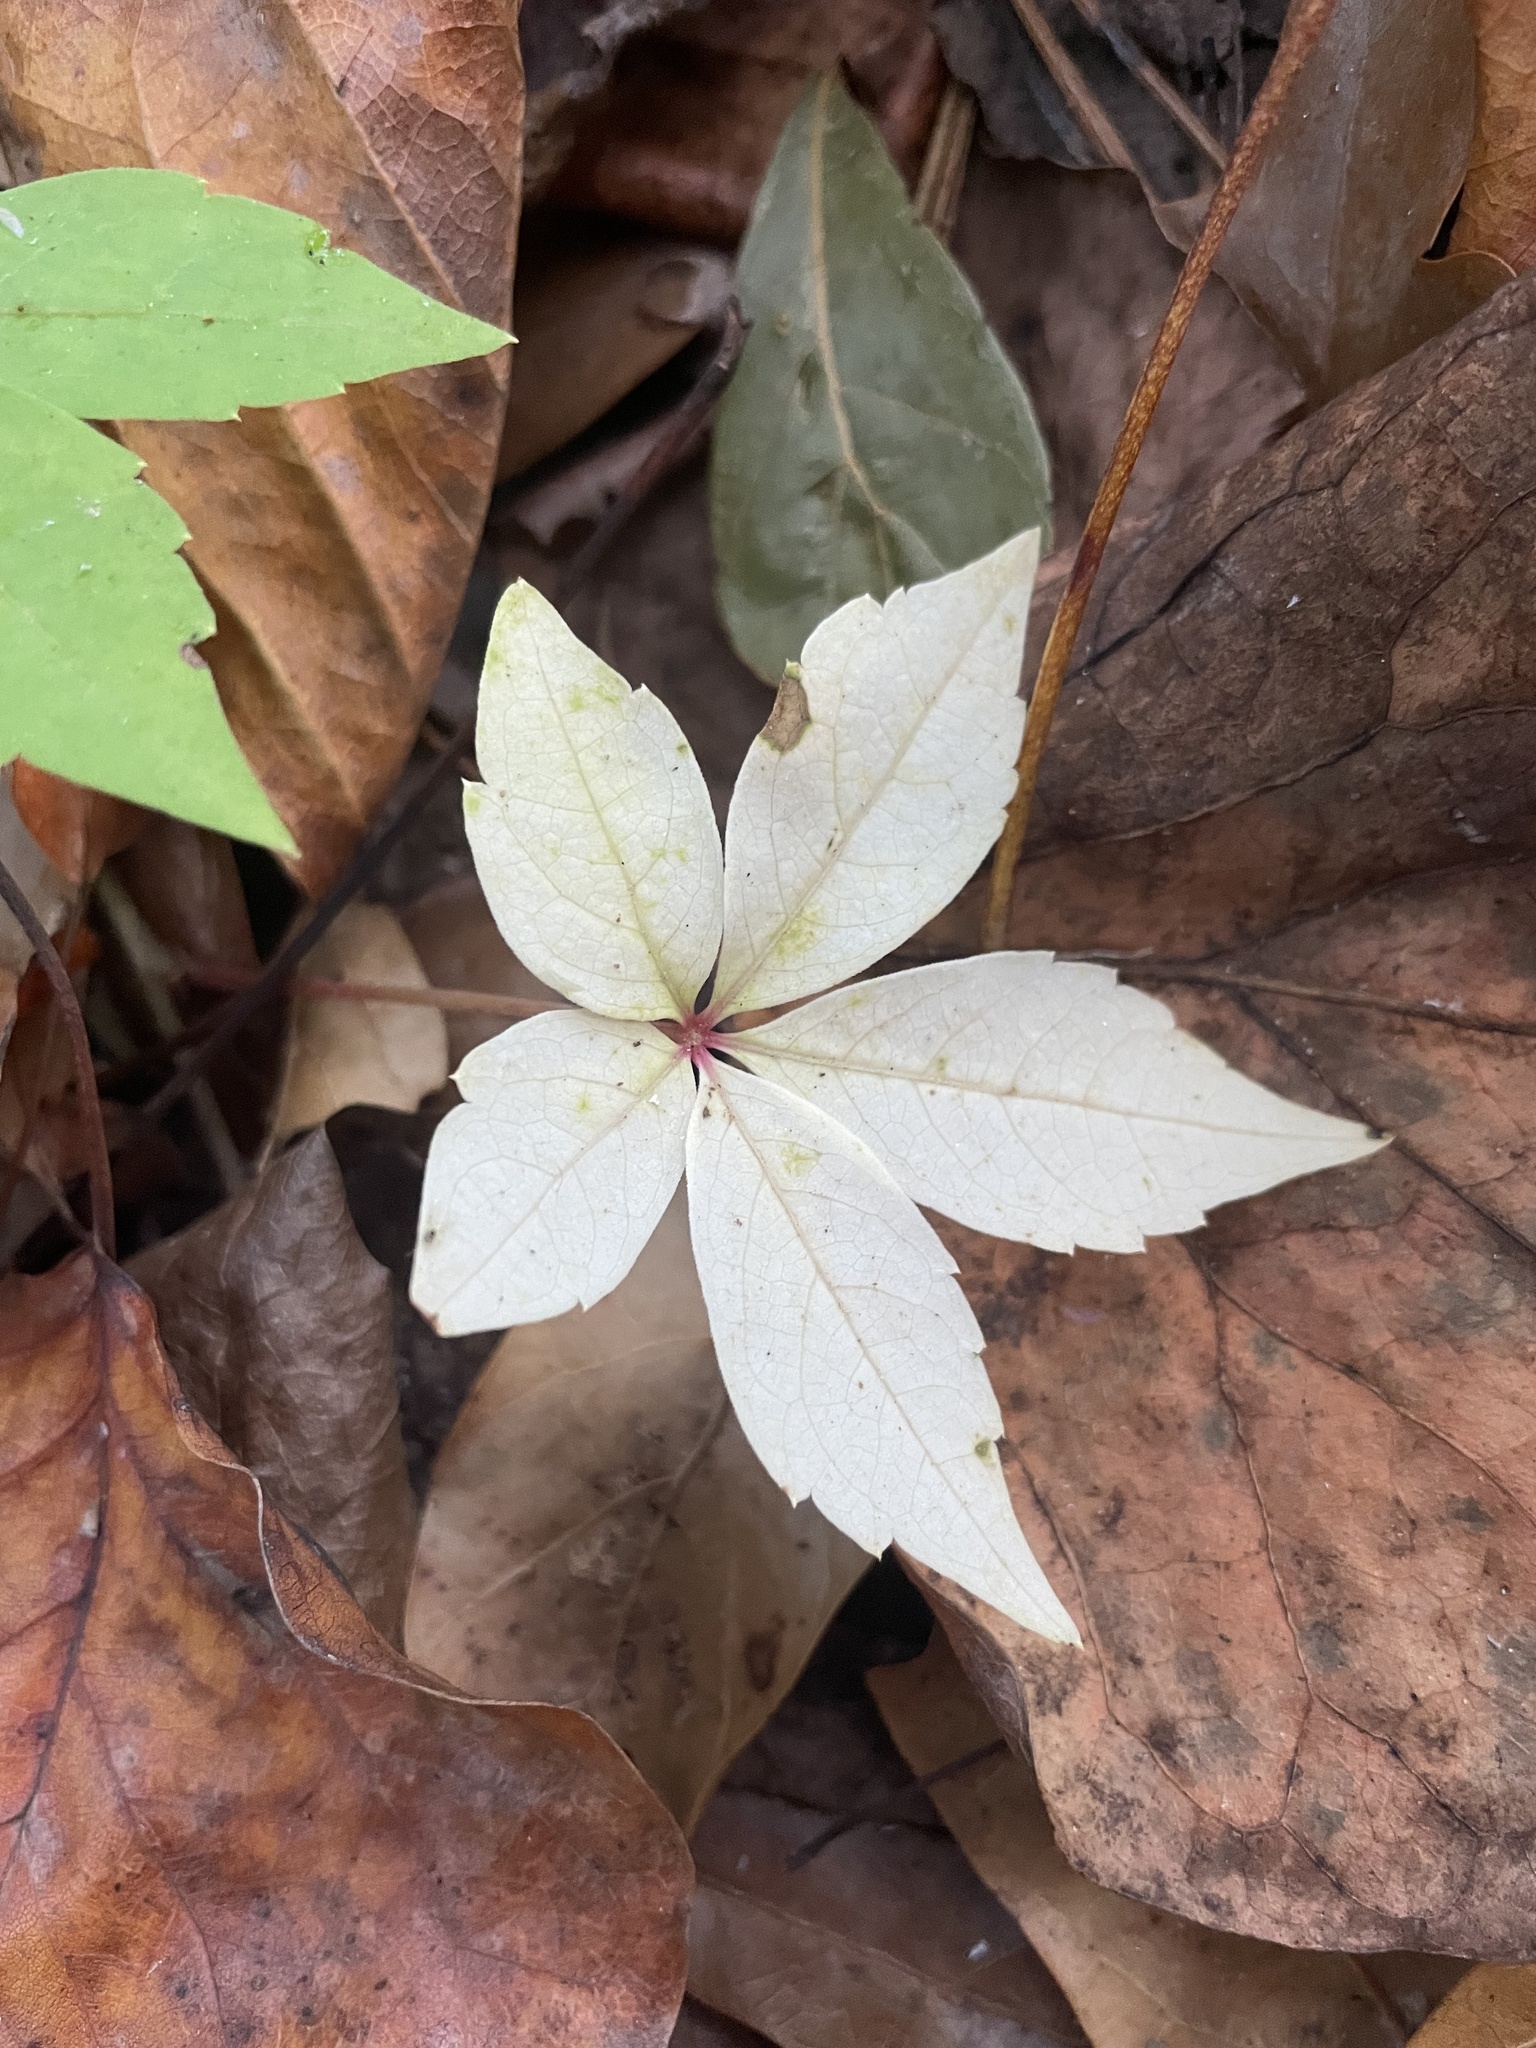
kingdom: Plantae
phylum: Tracheophyta
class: Magnoliopsida
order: Vitales
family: Vitaceae
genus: Parthenocissus
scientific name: Parthenocissus quinquefolia
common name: Virginia-creeper
